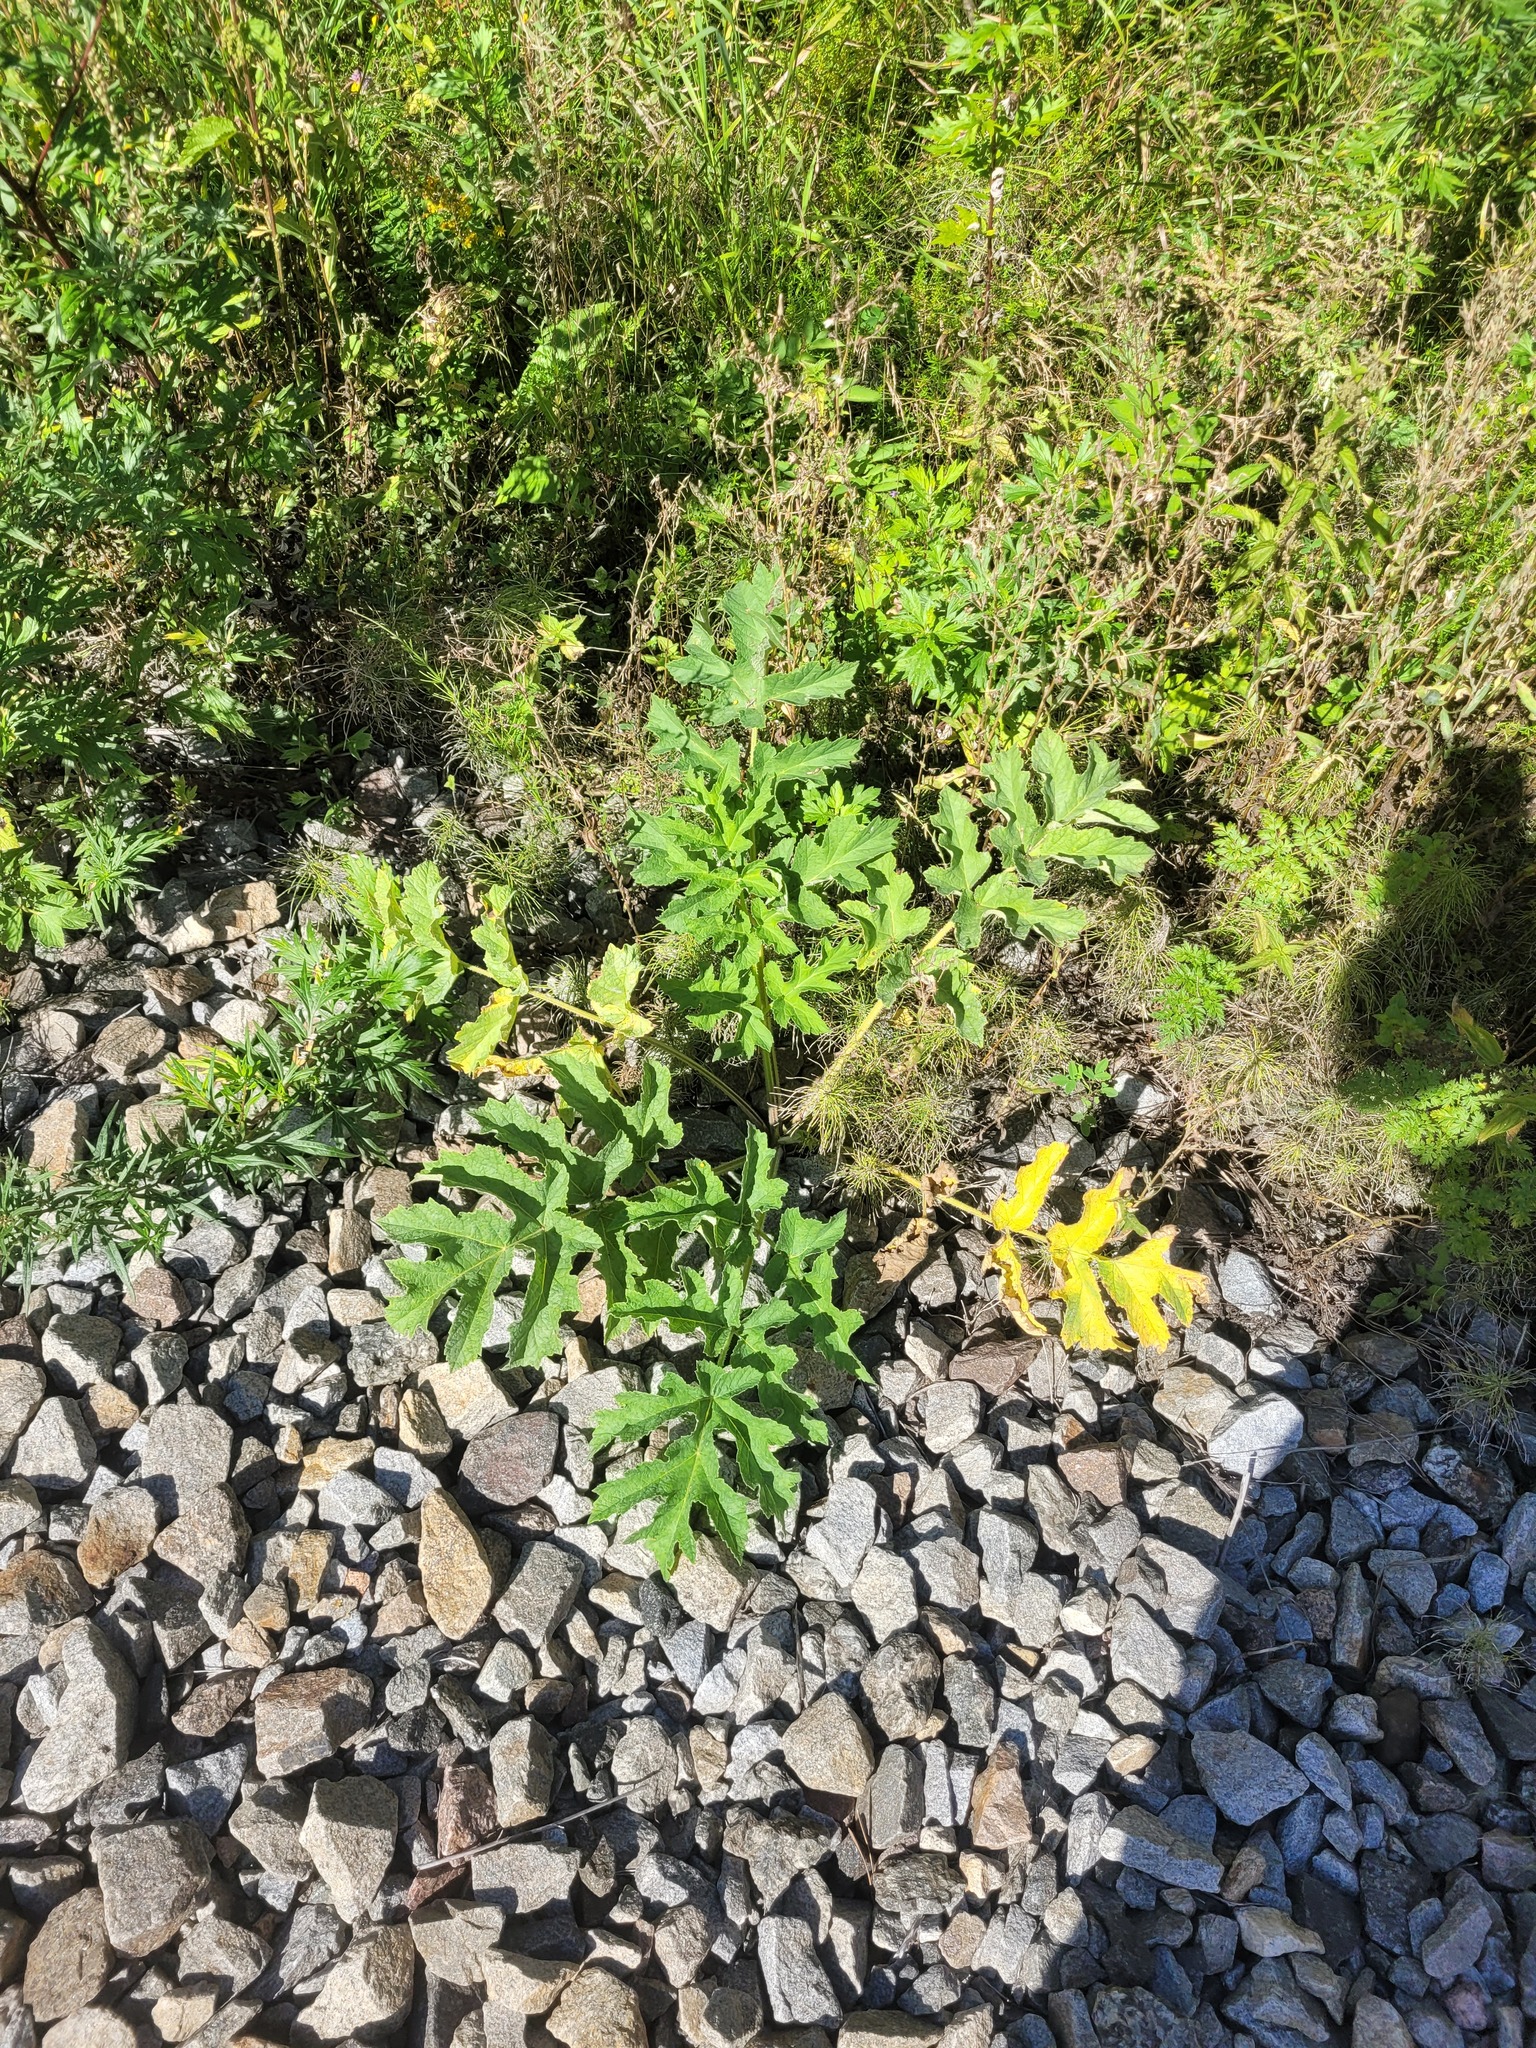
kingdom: Plantae
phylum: Tracheophyta
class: Magnoliopsida
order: Apiales
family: Apiaceae
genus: Heracleum
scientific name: Heracleum sphondylium
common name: Hogweed
